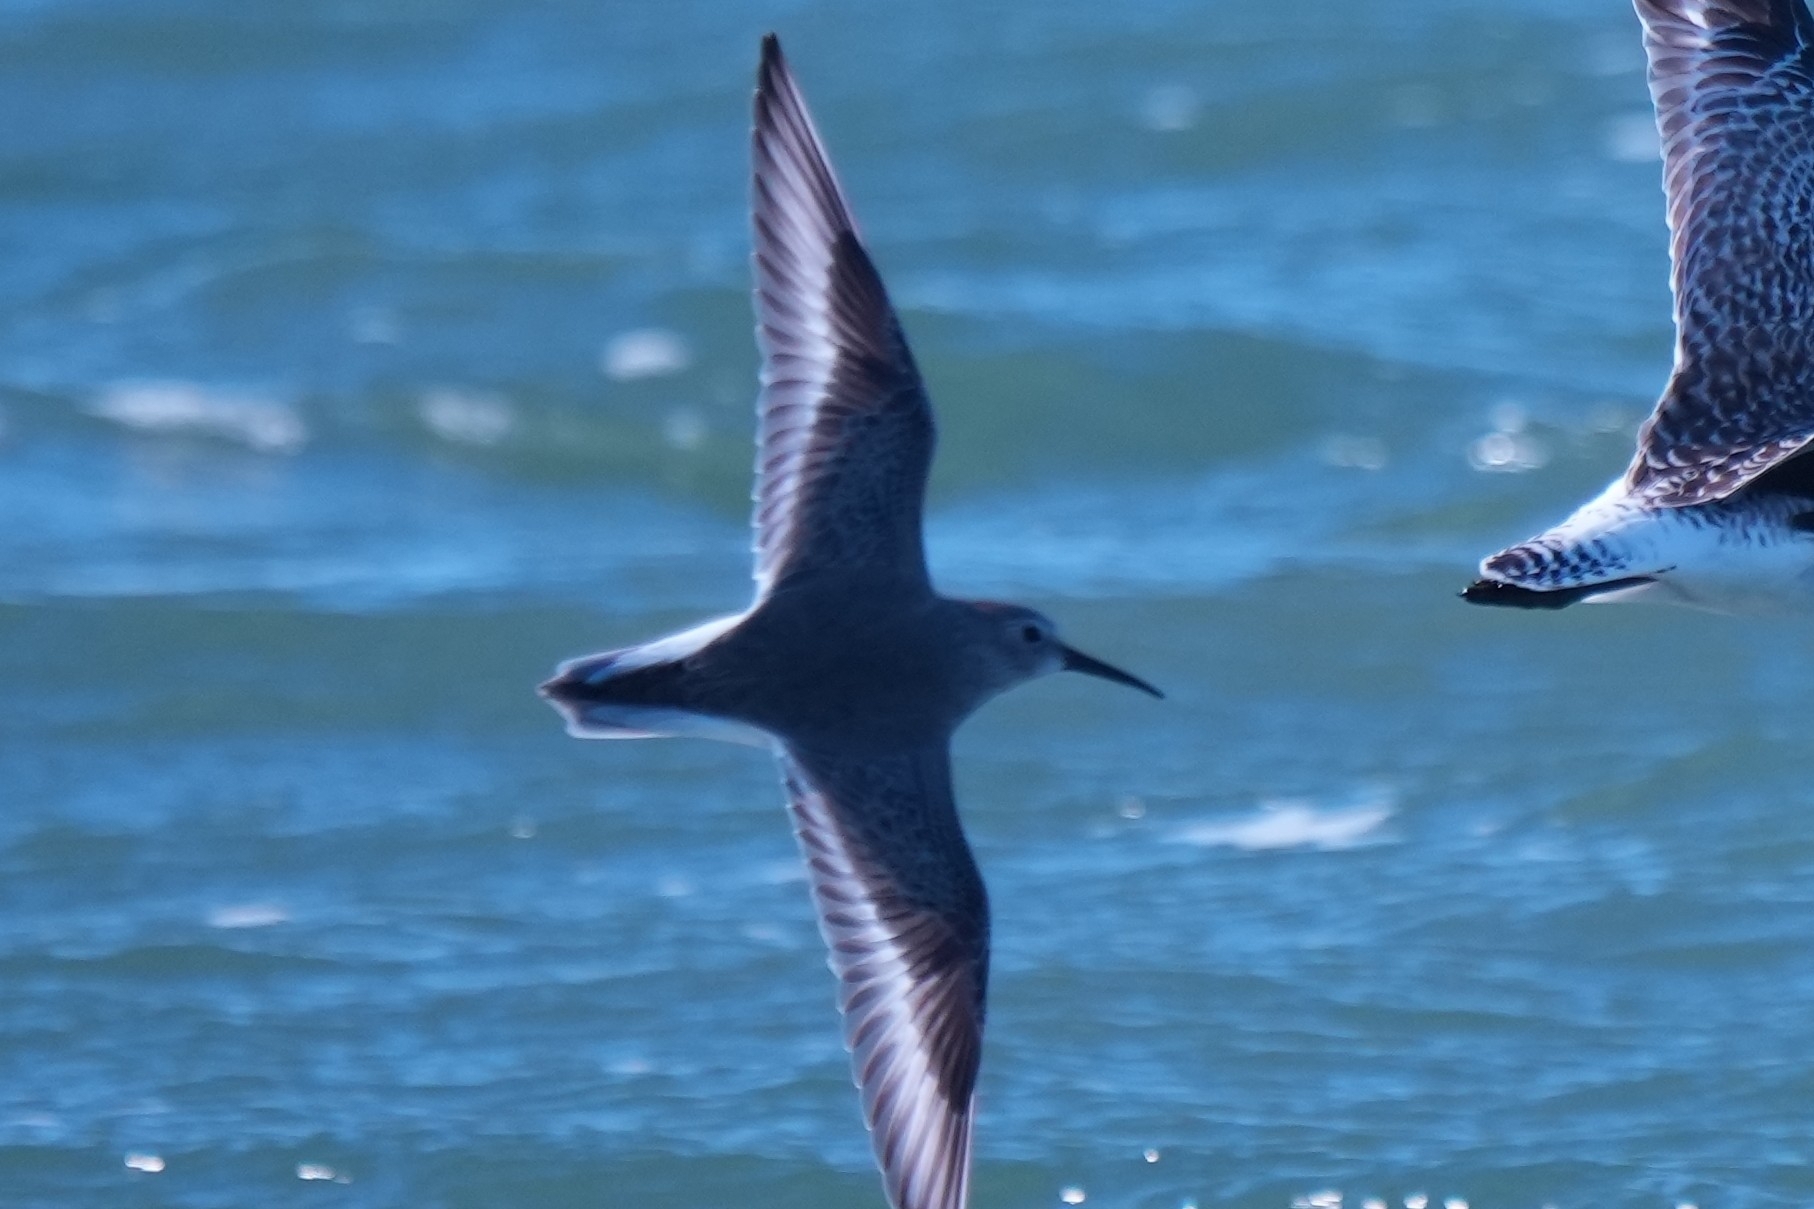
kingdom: Animalia
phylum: Chordata
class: Aves
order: Charadriiformes
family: Scolopacidae
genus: Calidris
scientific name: Calidris alpina
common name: Dunlin
